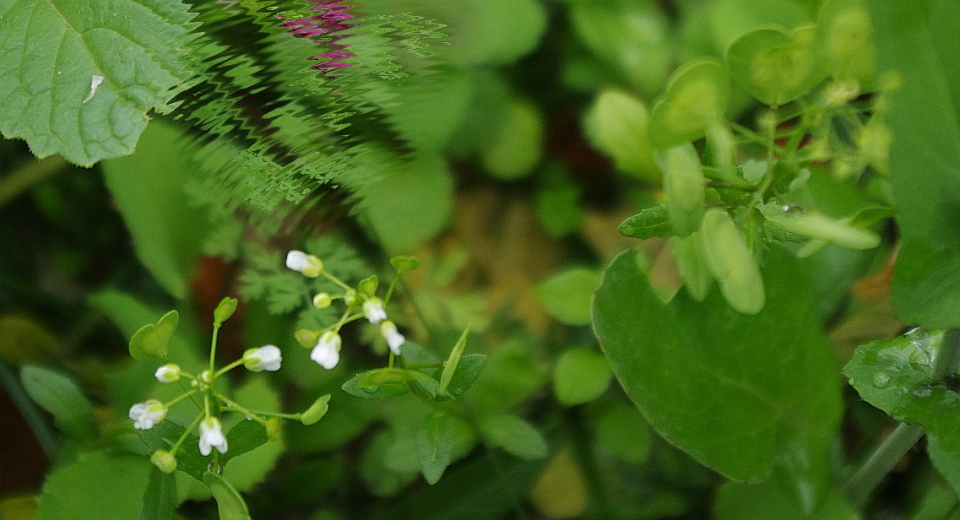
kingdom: Plantae
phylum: Tracheophyta
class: Magnoliopsida
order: Brassicales
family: Brassicaceae
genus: Thlaspi
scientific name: Thlaspi arvense
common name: Field pennycress
